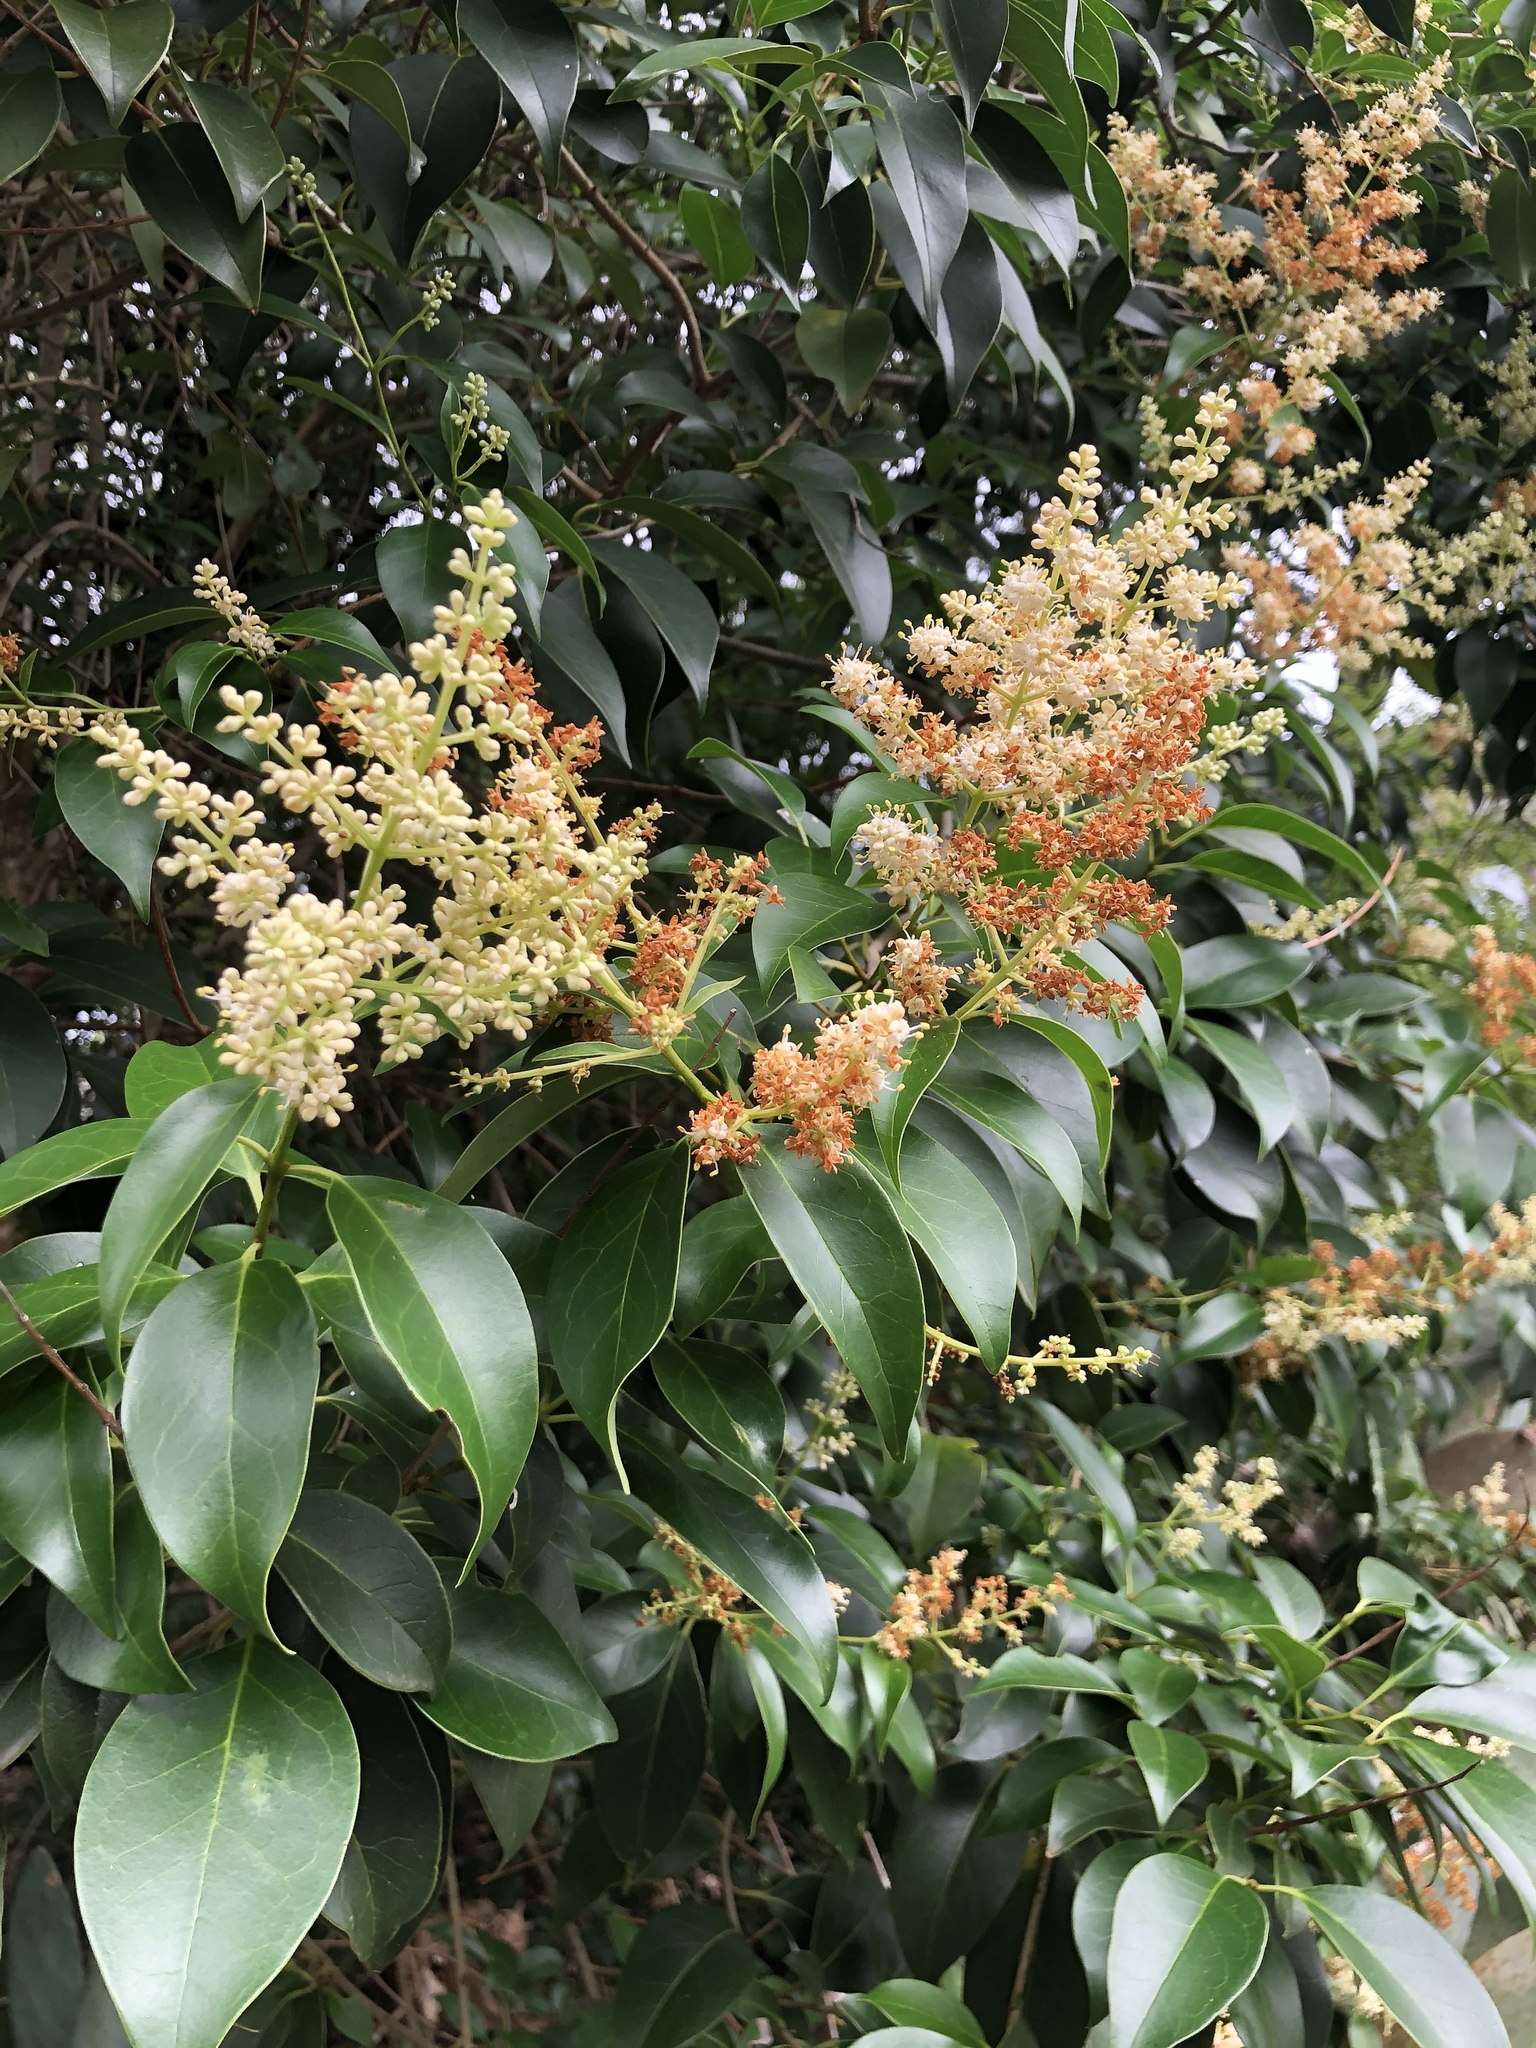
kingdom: Plantae
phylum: Tracheophyta
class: Magnoliopsida
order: Lamiales
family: Oleaceae
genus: Ligustrum
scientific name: Ligustrum lucidum
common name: Glossy privet
